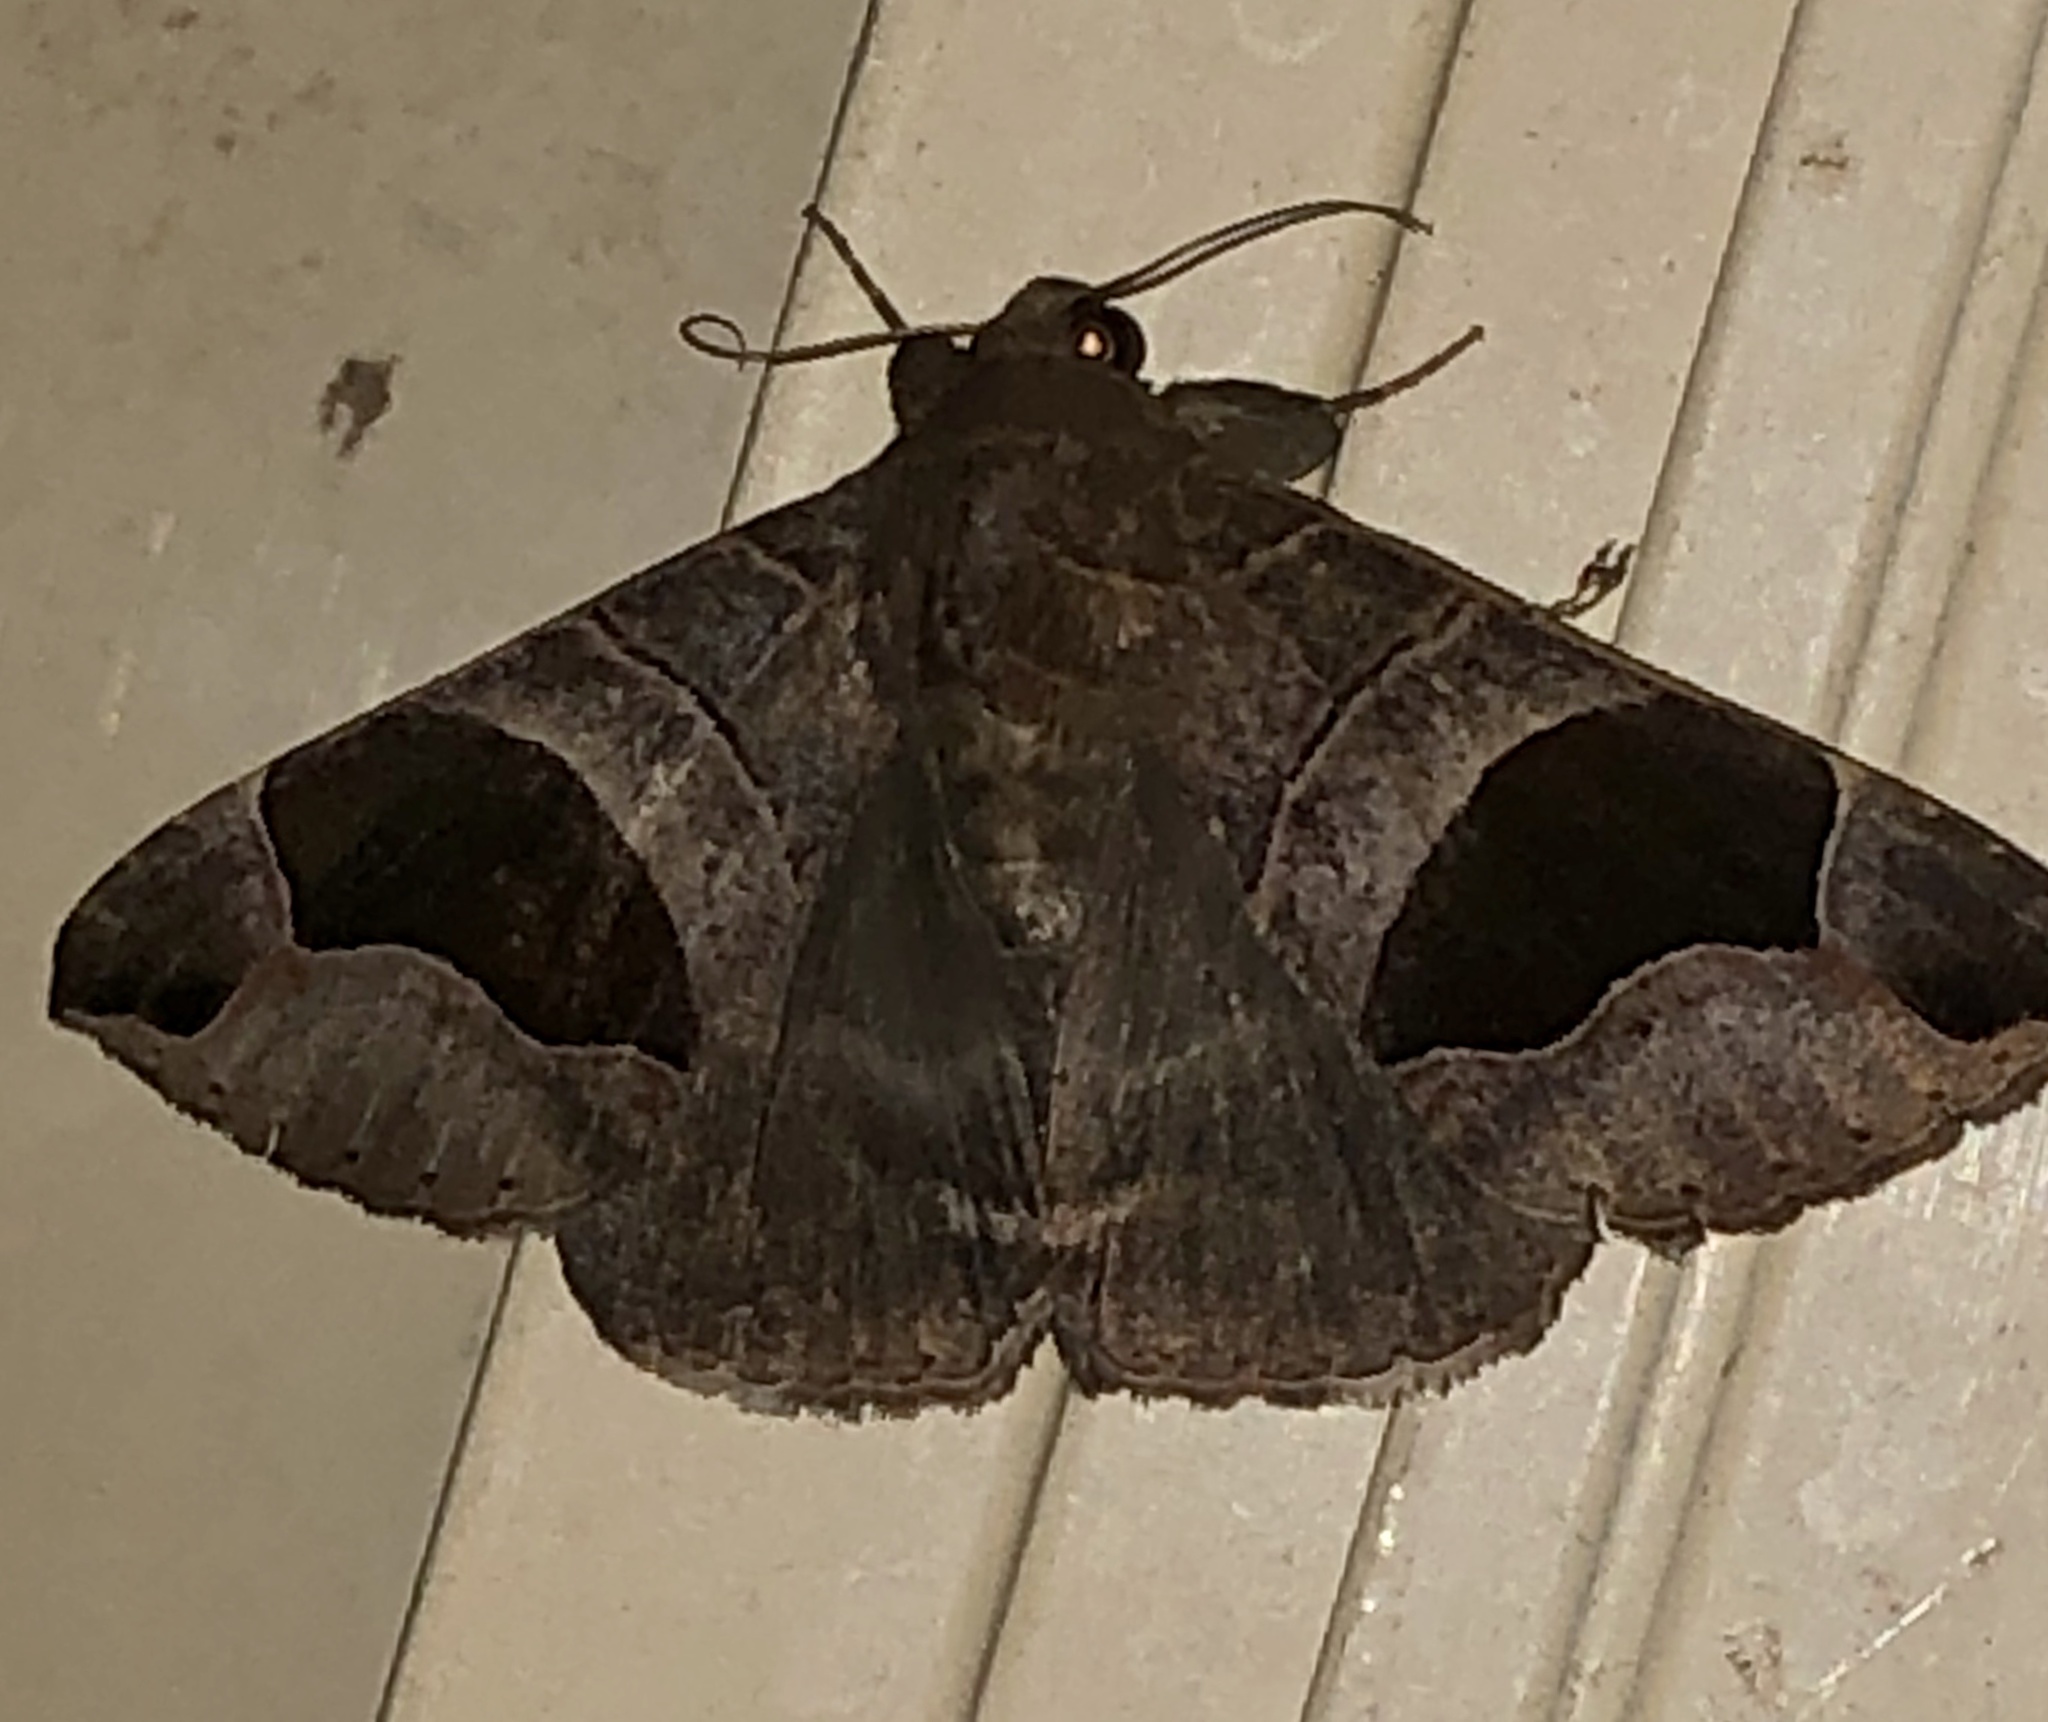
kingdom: Animalia
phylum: Arthropoda
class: Insecta
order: Lepidoptera
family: Erebidae
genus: Bastilla
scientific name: Bastilla solomonensis
